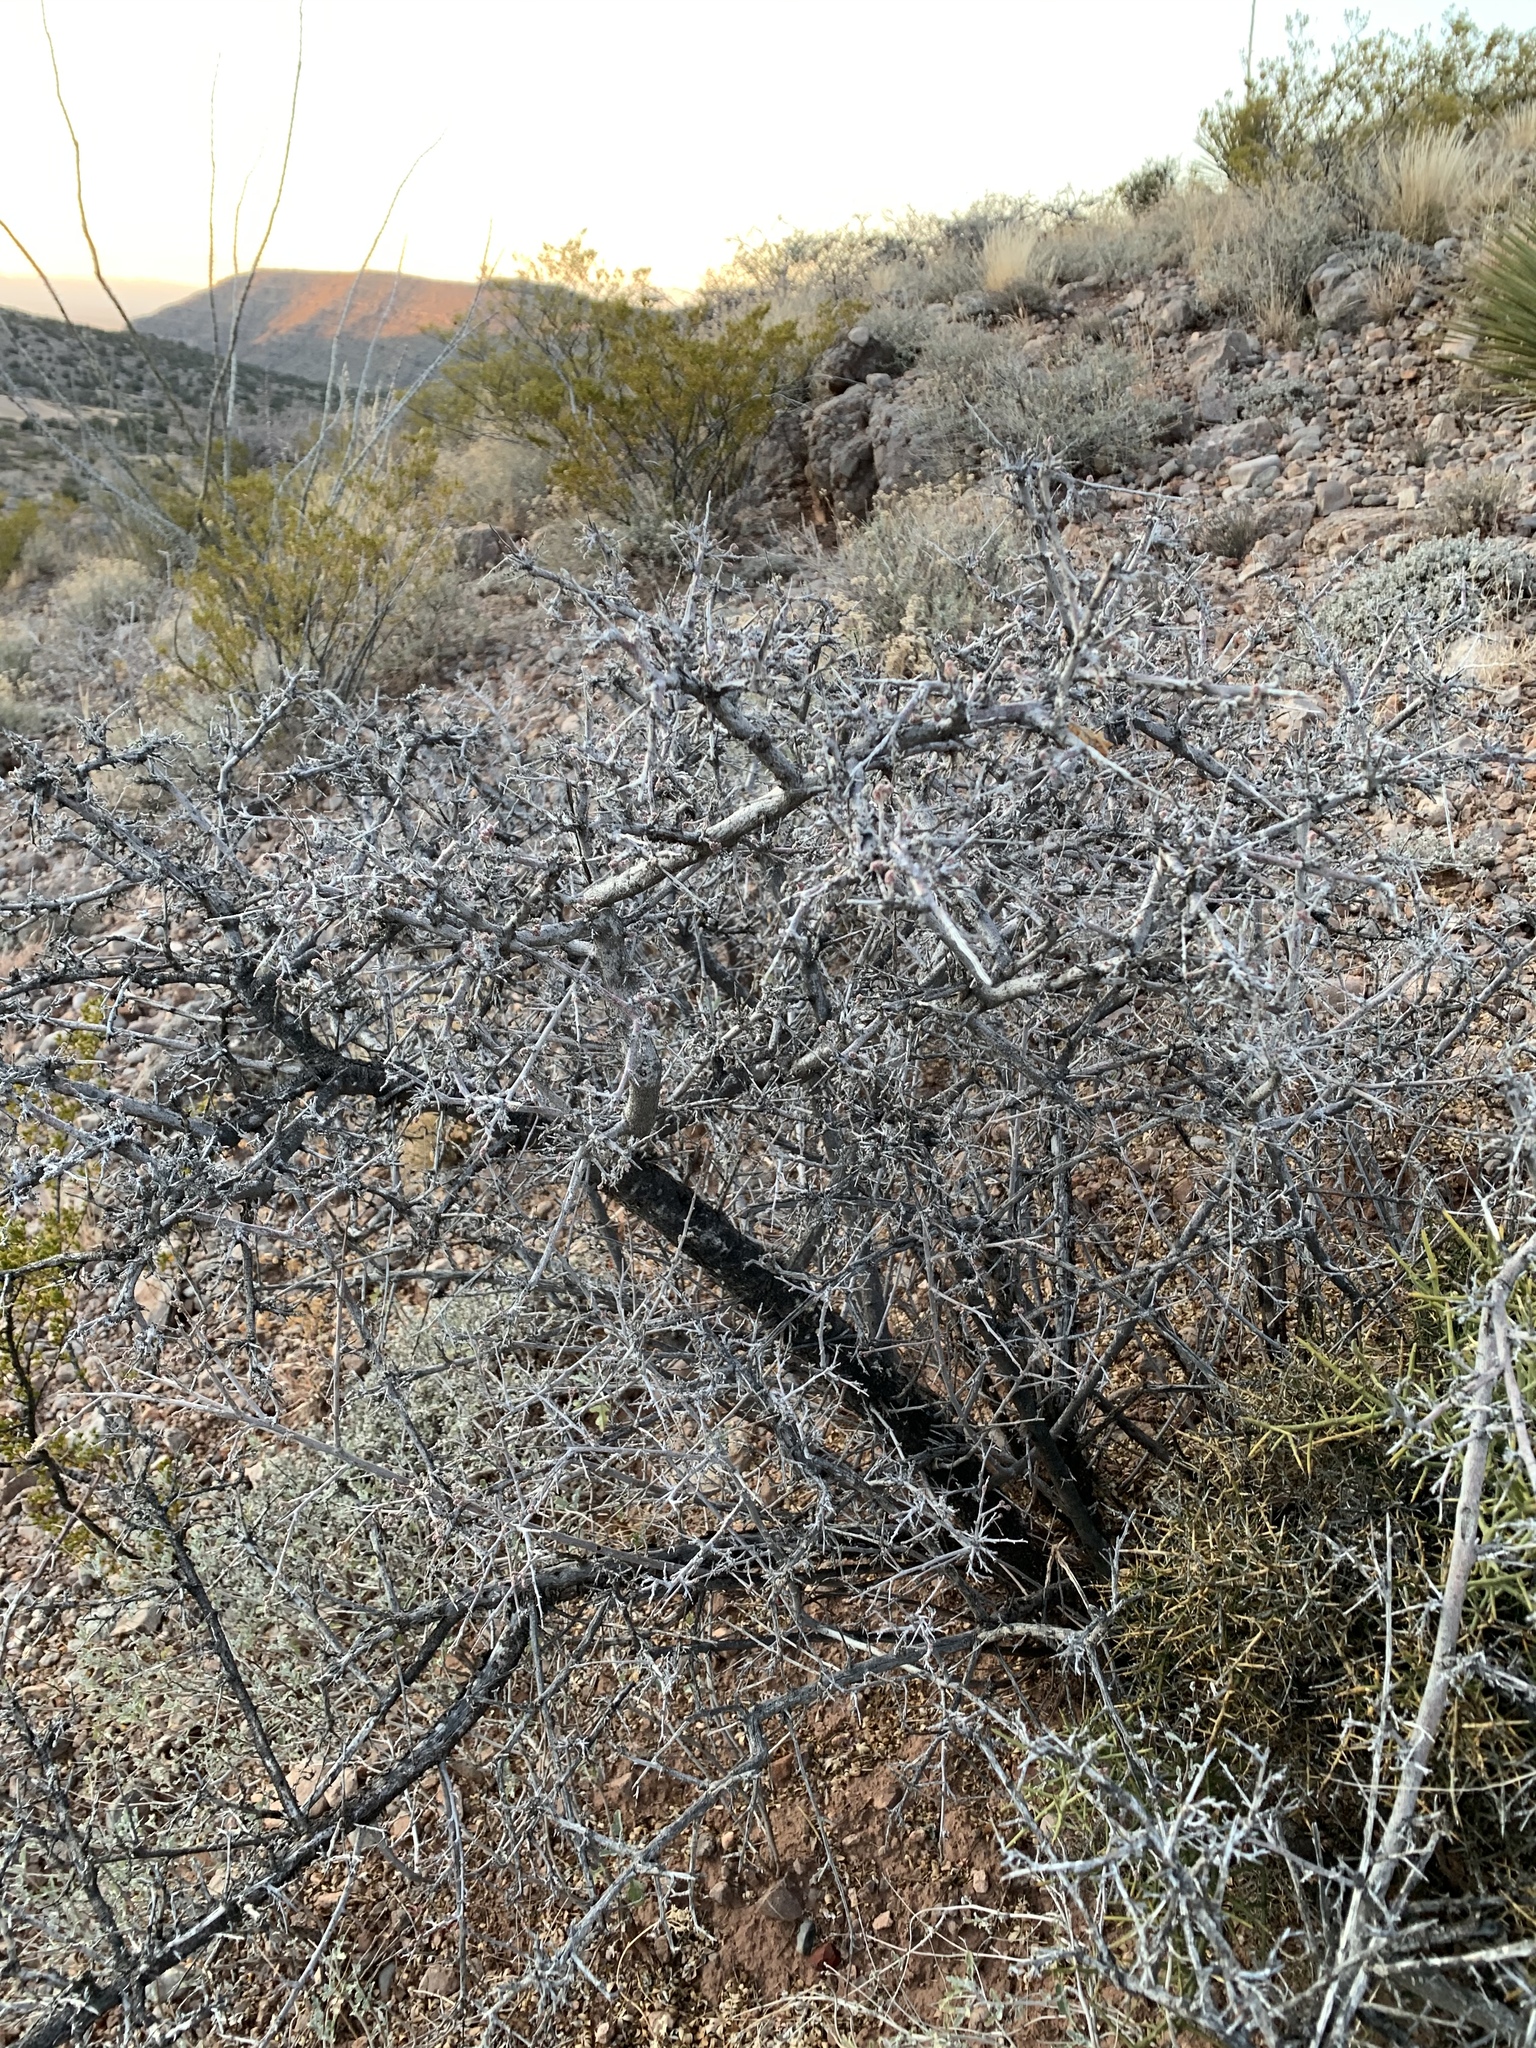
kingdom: Plantae
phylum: Tracheophyta
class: Magnoliopsida
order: Sapindales
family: Anacardiaceae
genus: Rhus
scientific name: Rhus microphylla
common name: Desert sumac
